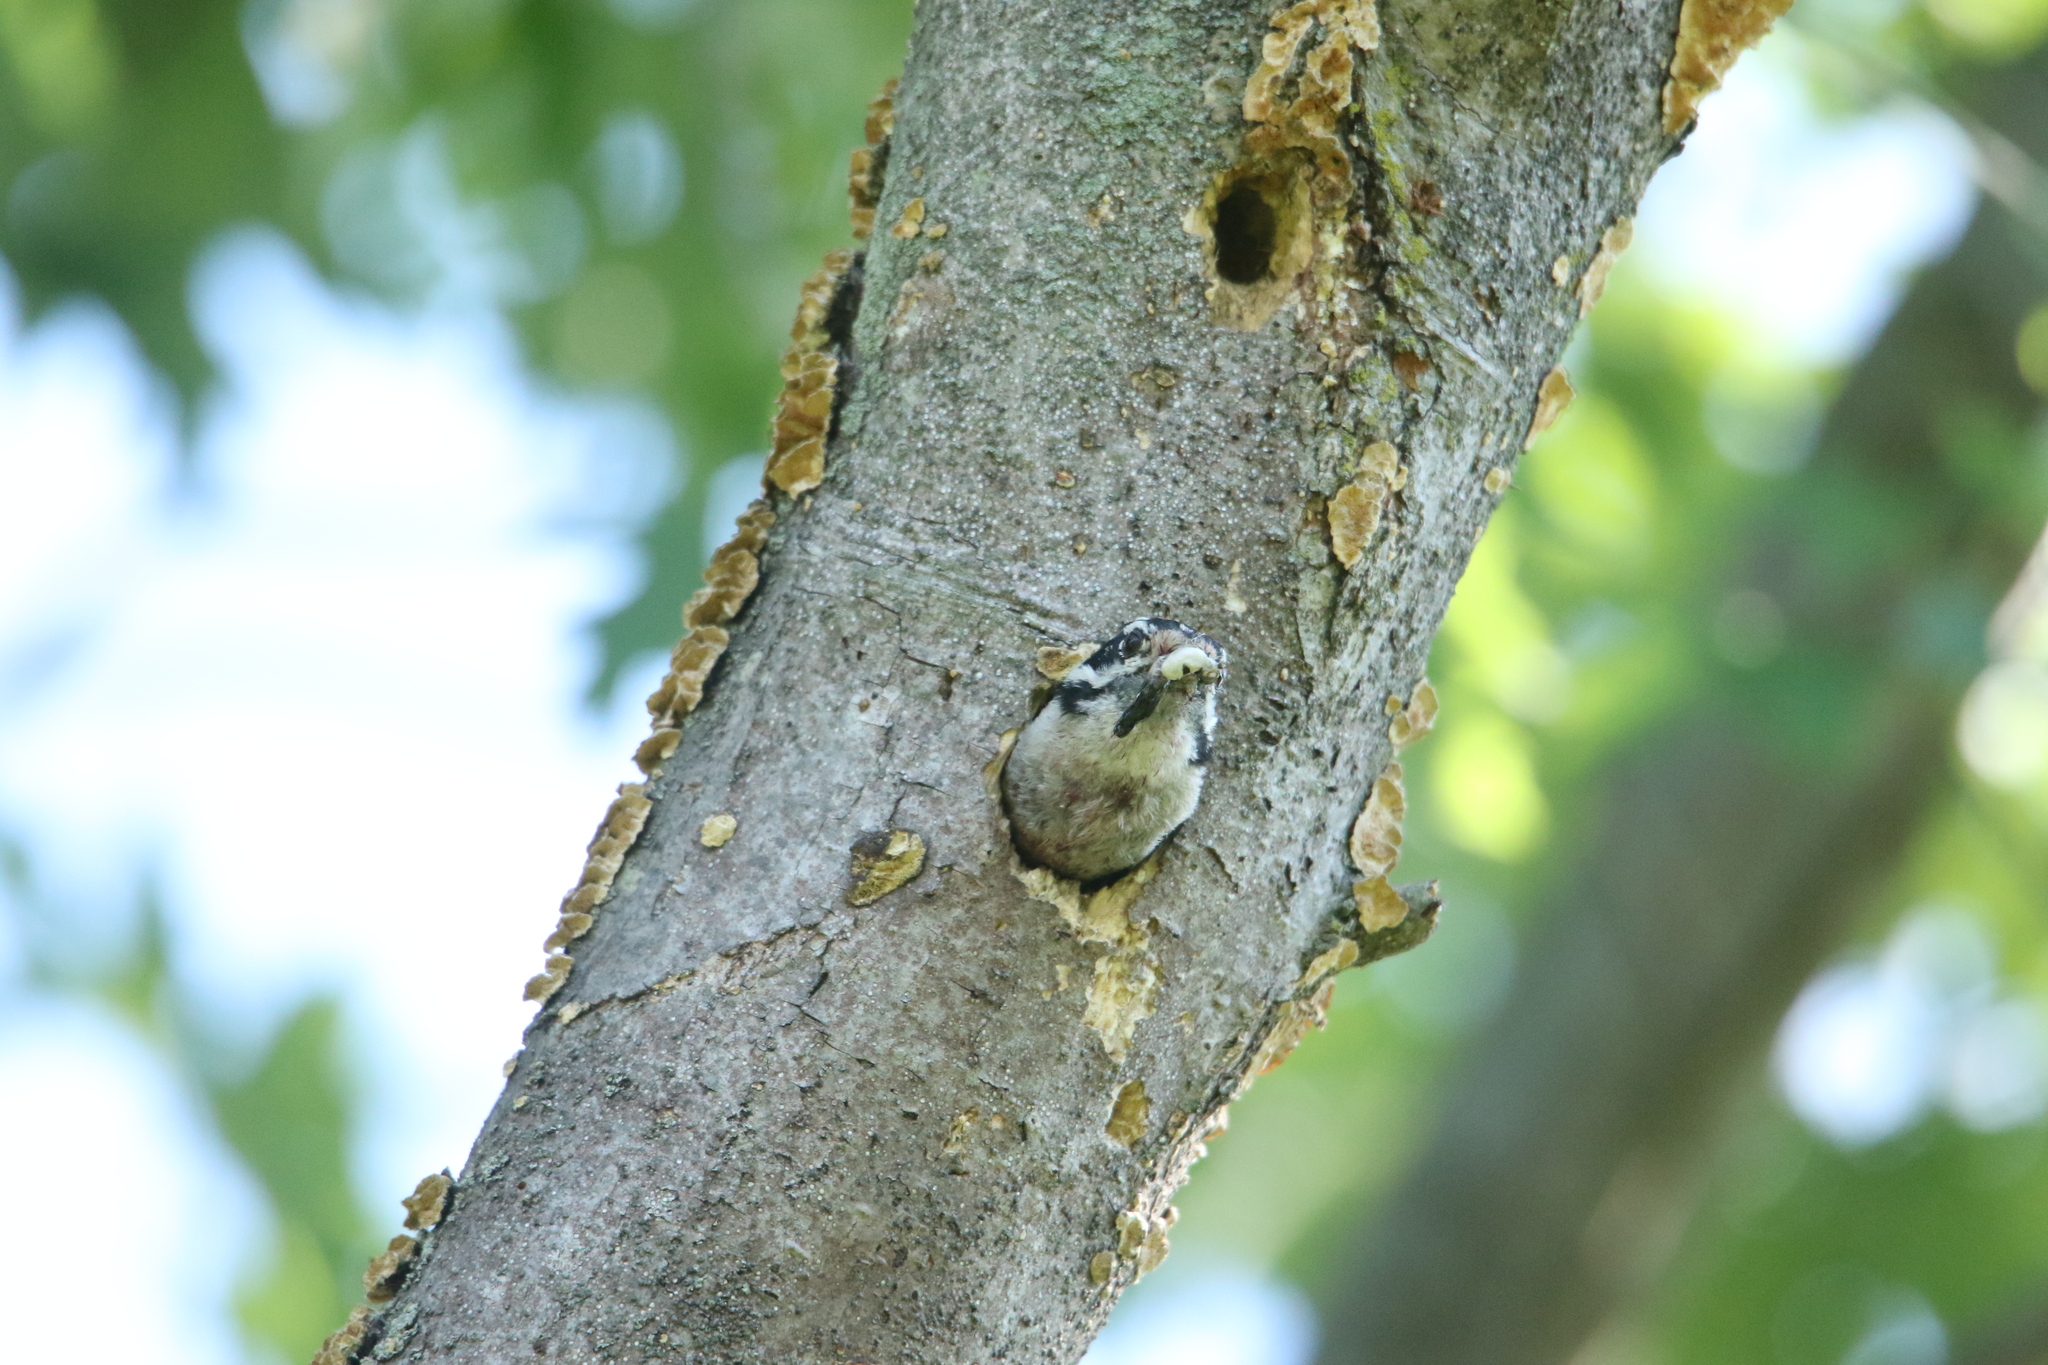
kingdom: Animalia
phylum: Chordata
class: Aves
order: Piciformes
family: Picidae
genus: Leuconotopicus
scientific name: Leuconotopicus villosus
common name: Hairy woodpecker
